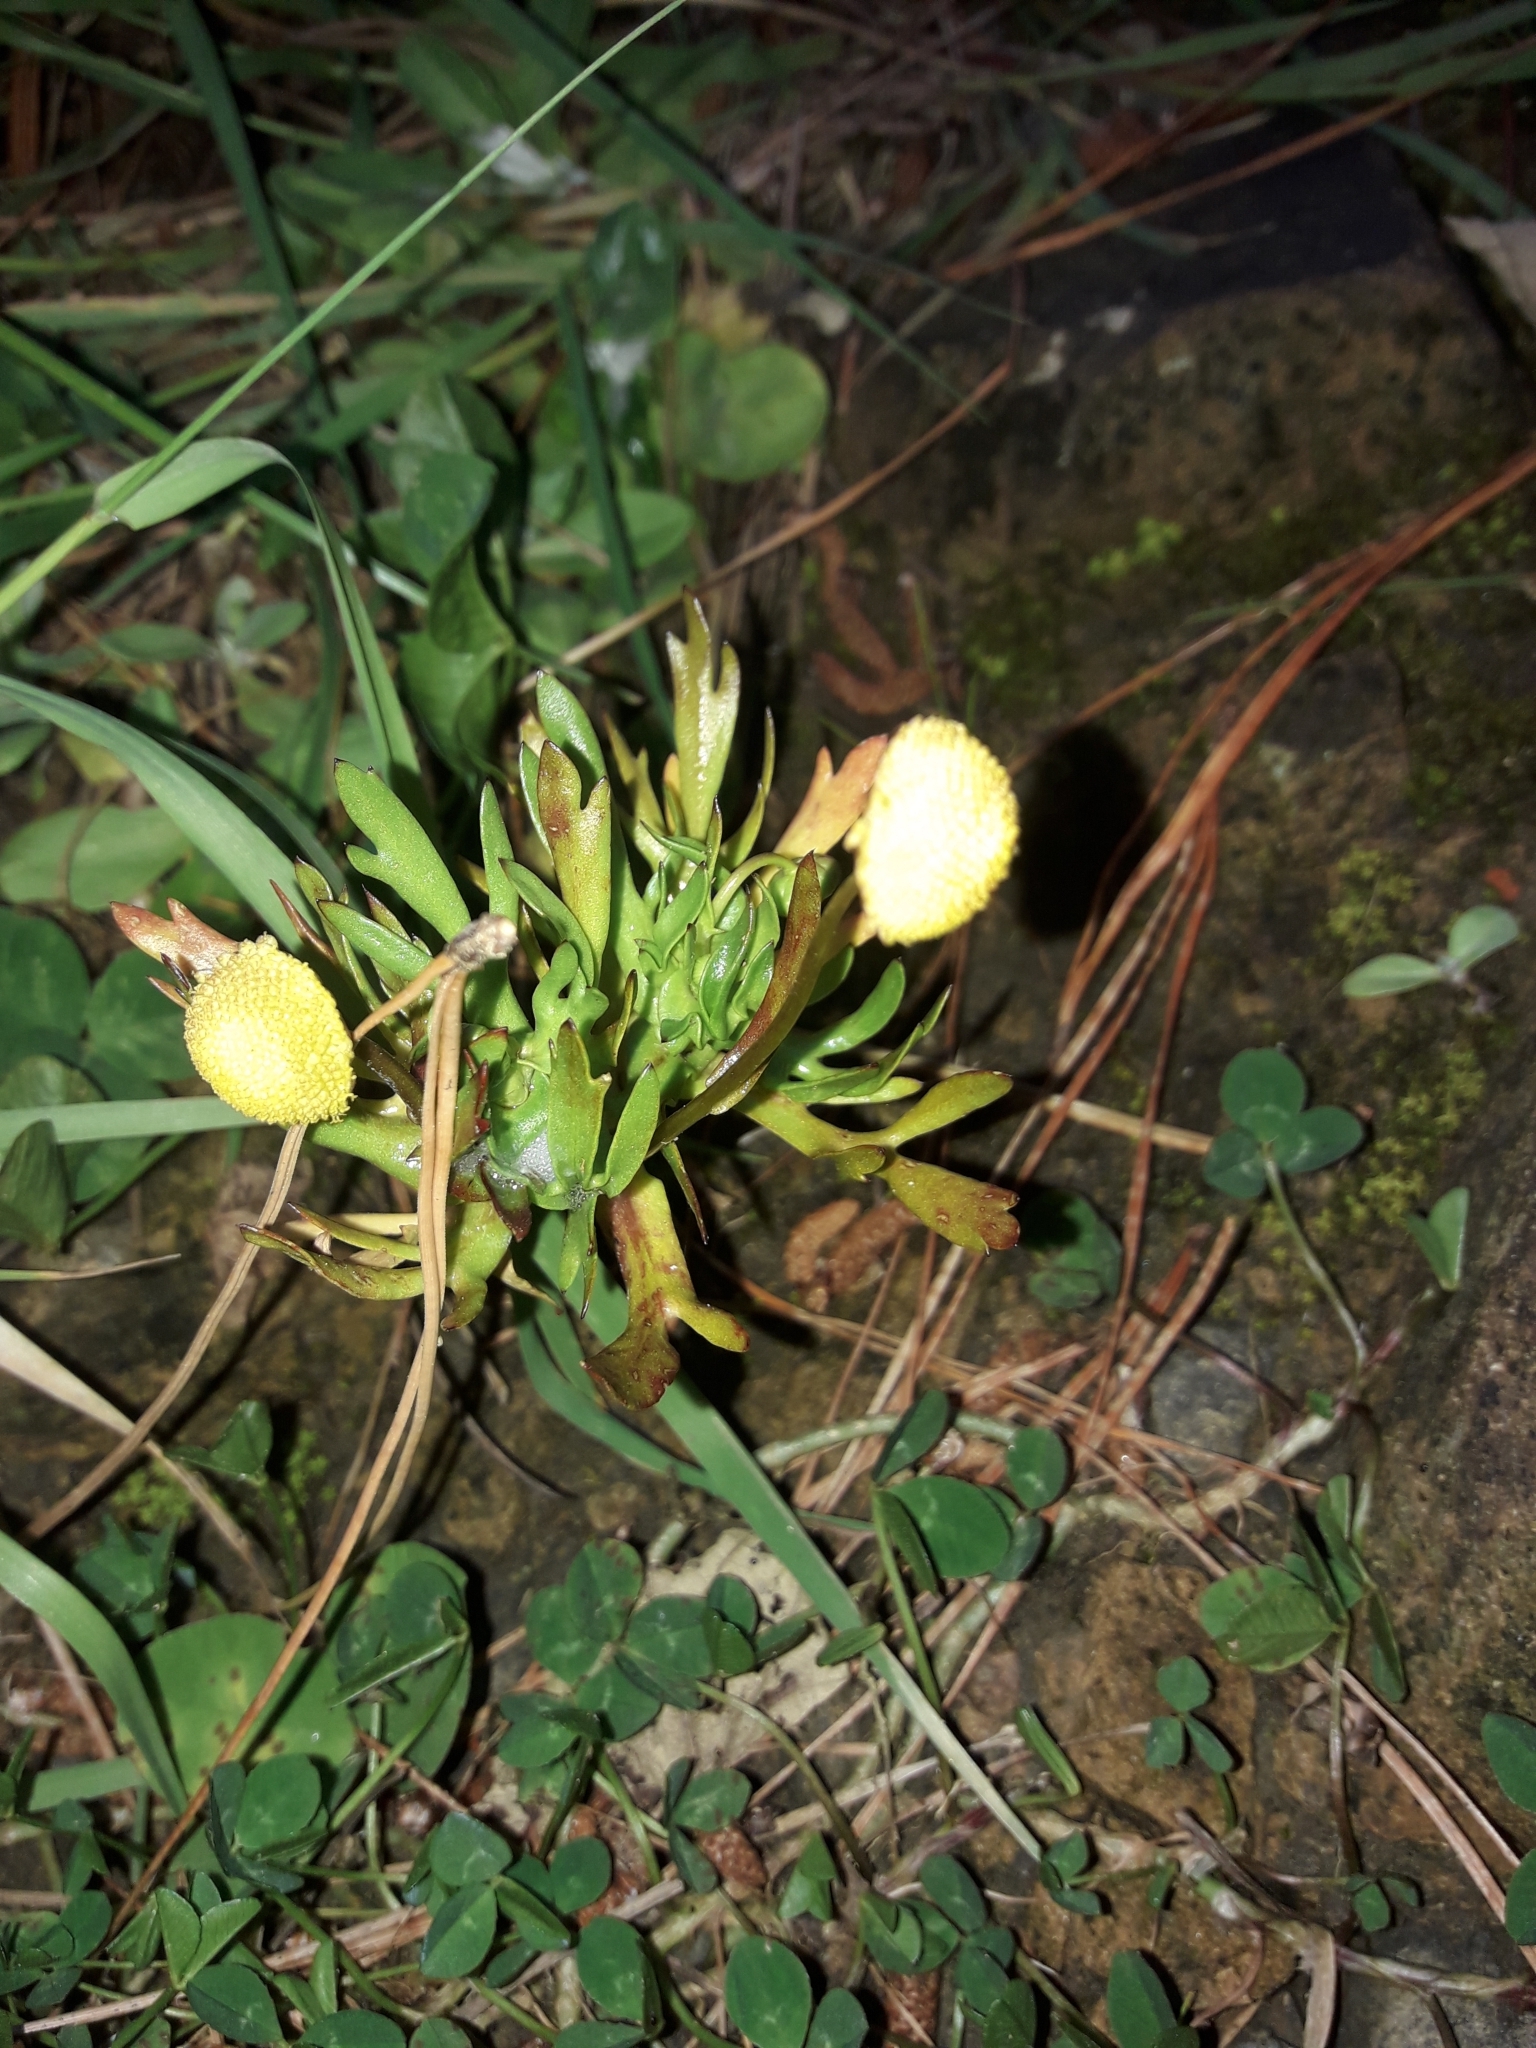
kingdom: Plantae
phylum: Tracheophyta
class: Magnoliopsida
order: Asterales
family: Asteraceae
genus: Cotula
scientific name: Cotula coronopifolia
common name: Buttonweed
